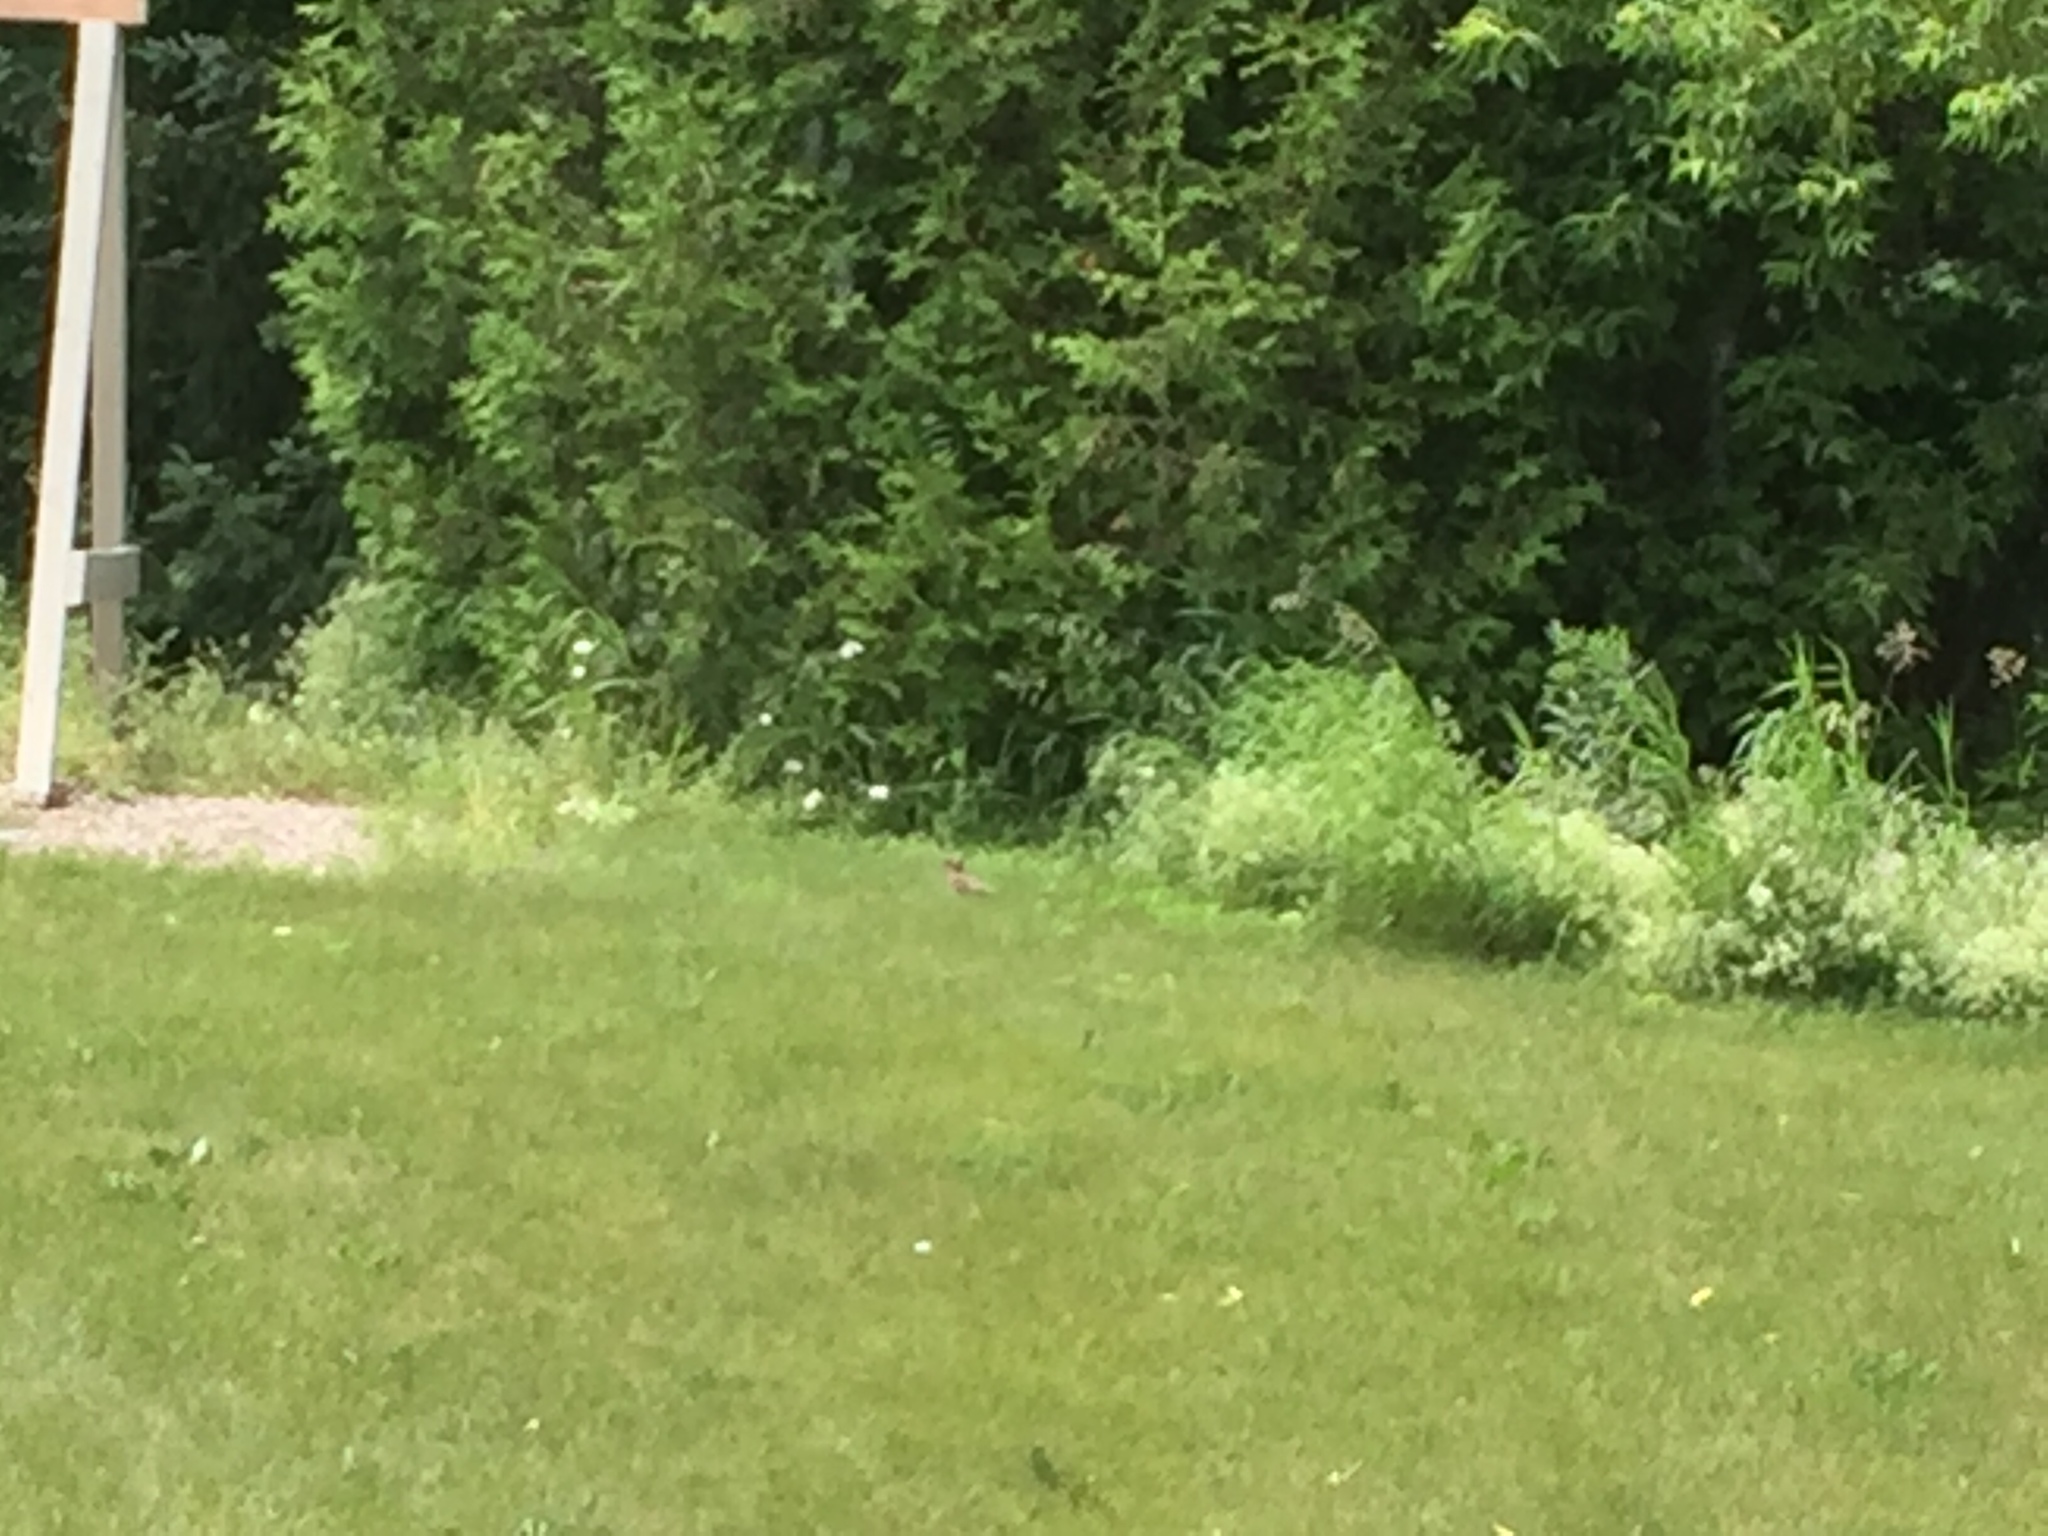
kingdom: Animalia
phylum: Chordata
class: Aves
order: Piciformes
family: Picidae
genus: Colaptes
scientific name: Colaptes auratus
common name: Northern flicker
